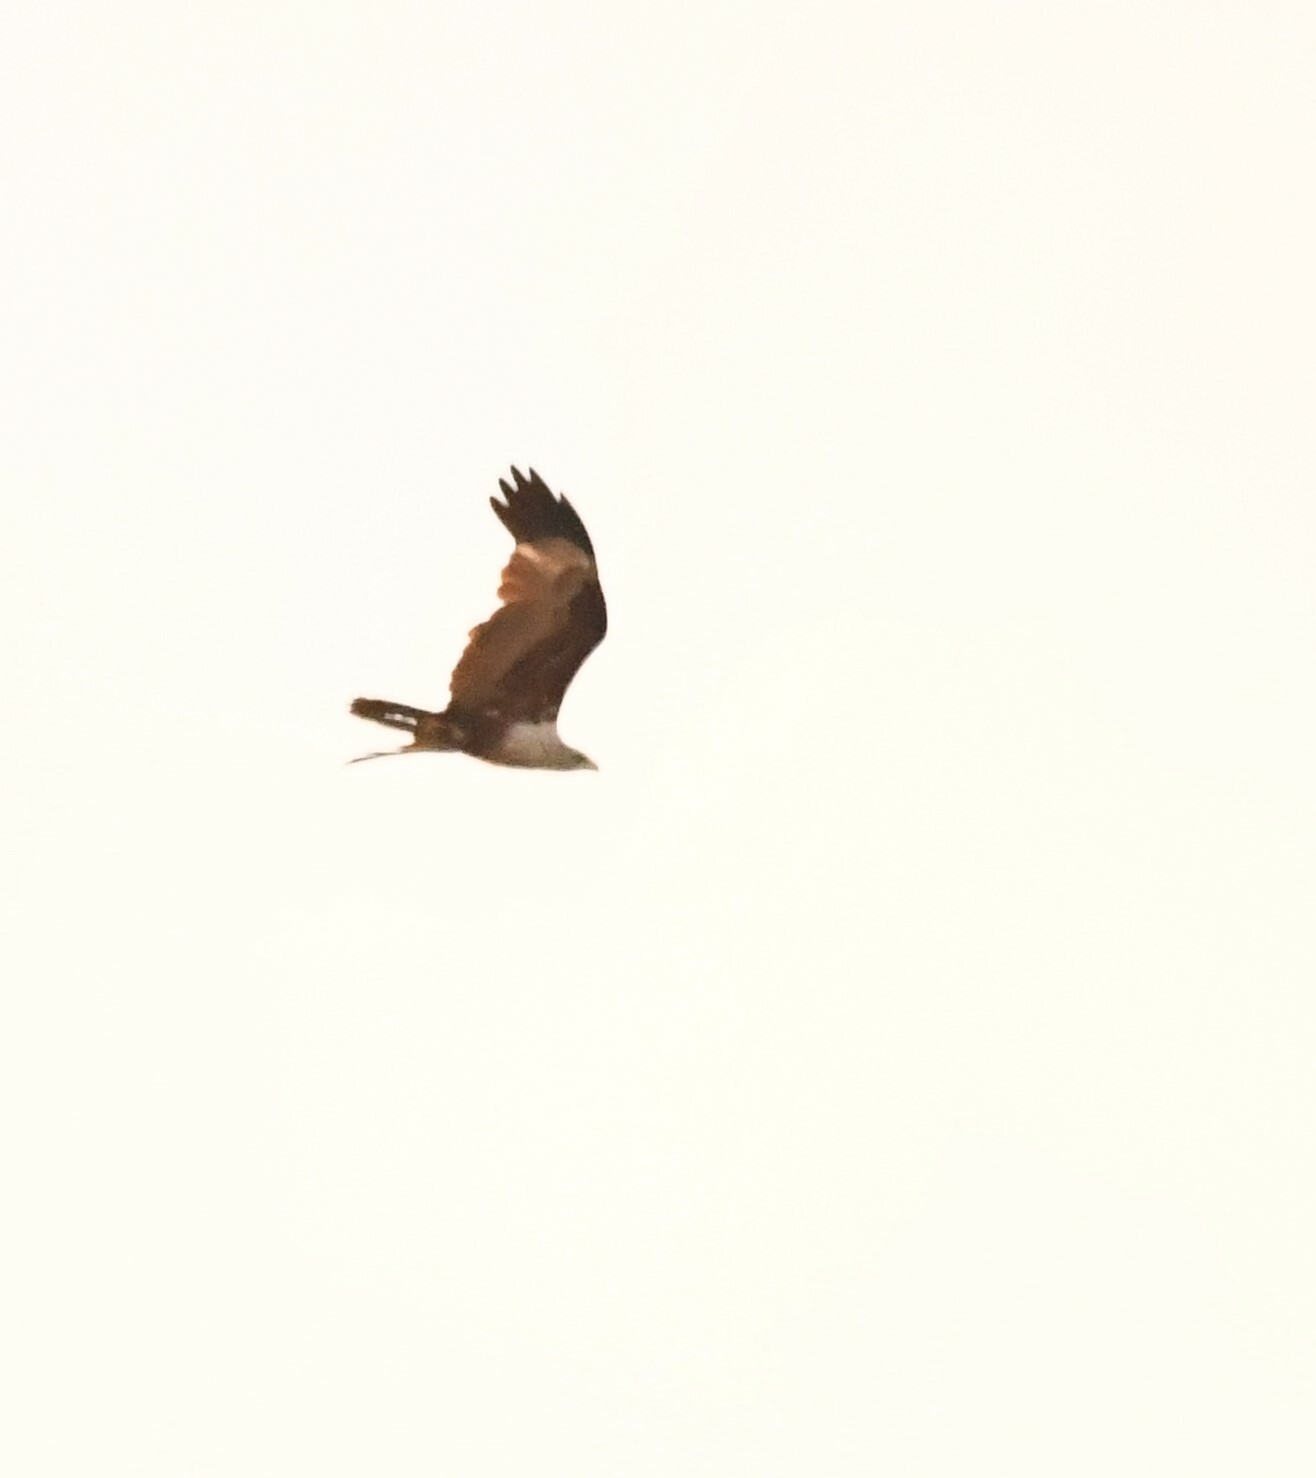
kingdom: Animalia
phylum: Chordata
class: Aves
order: Accipitriformes
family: Accipitridae
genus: Haliastur
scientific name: Haliastur indus
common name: Brahminy kite
